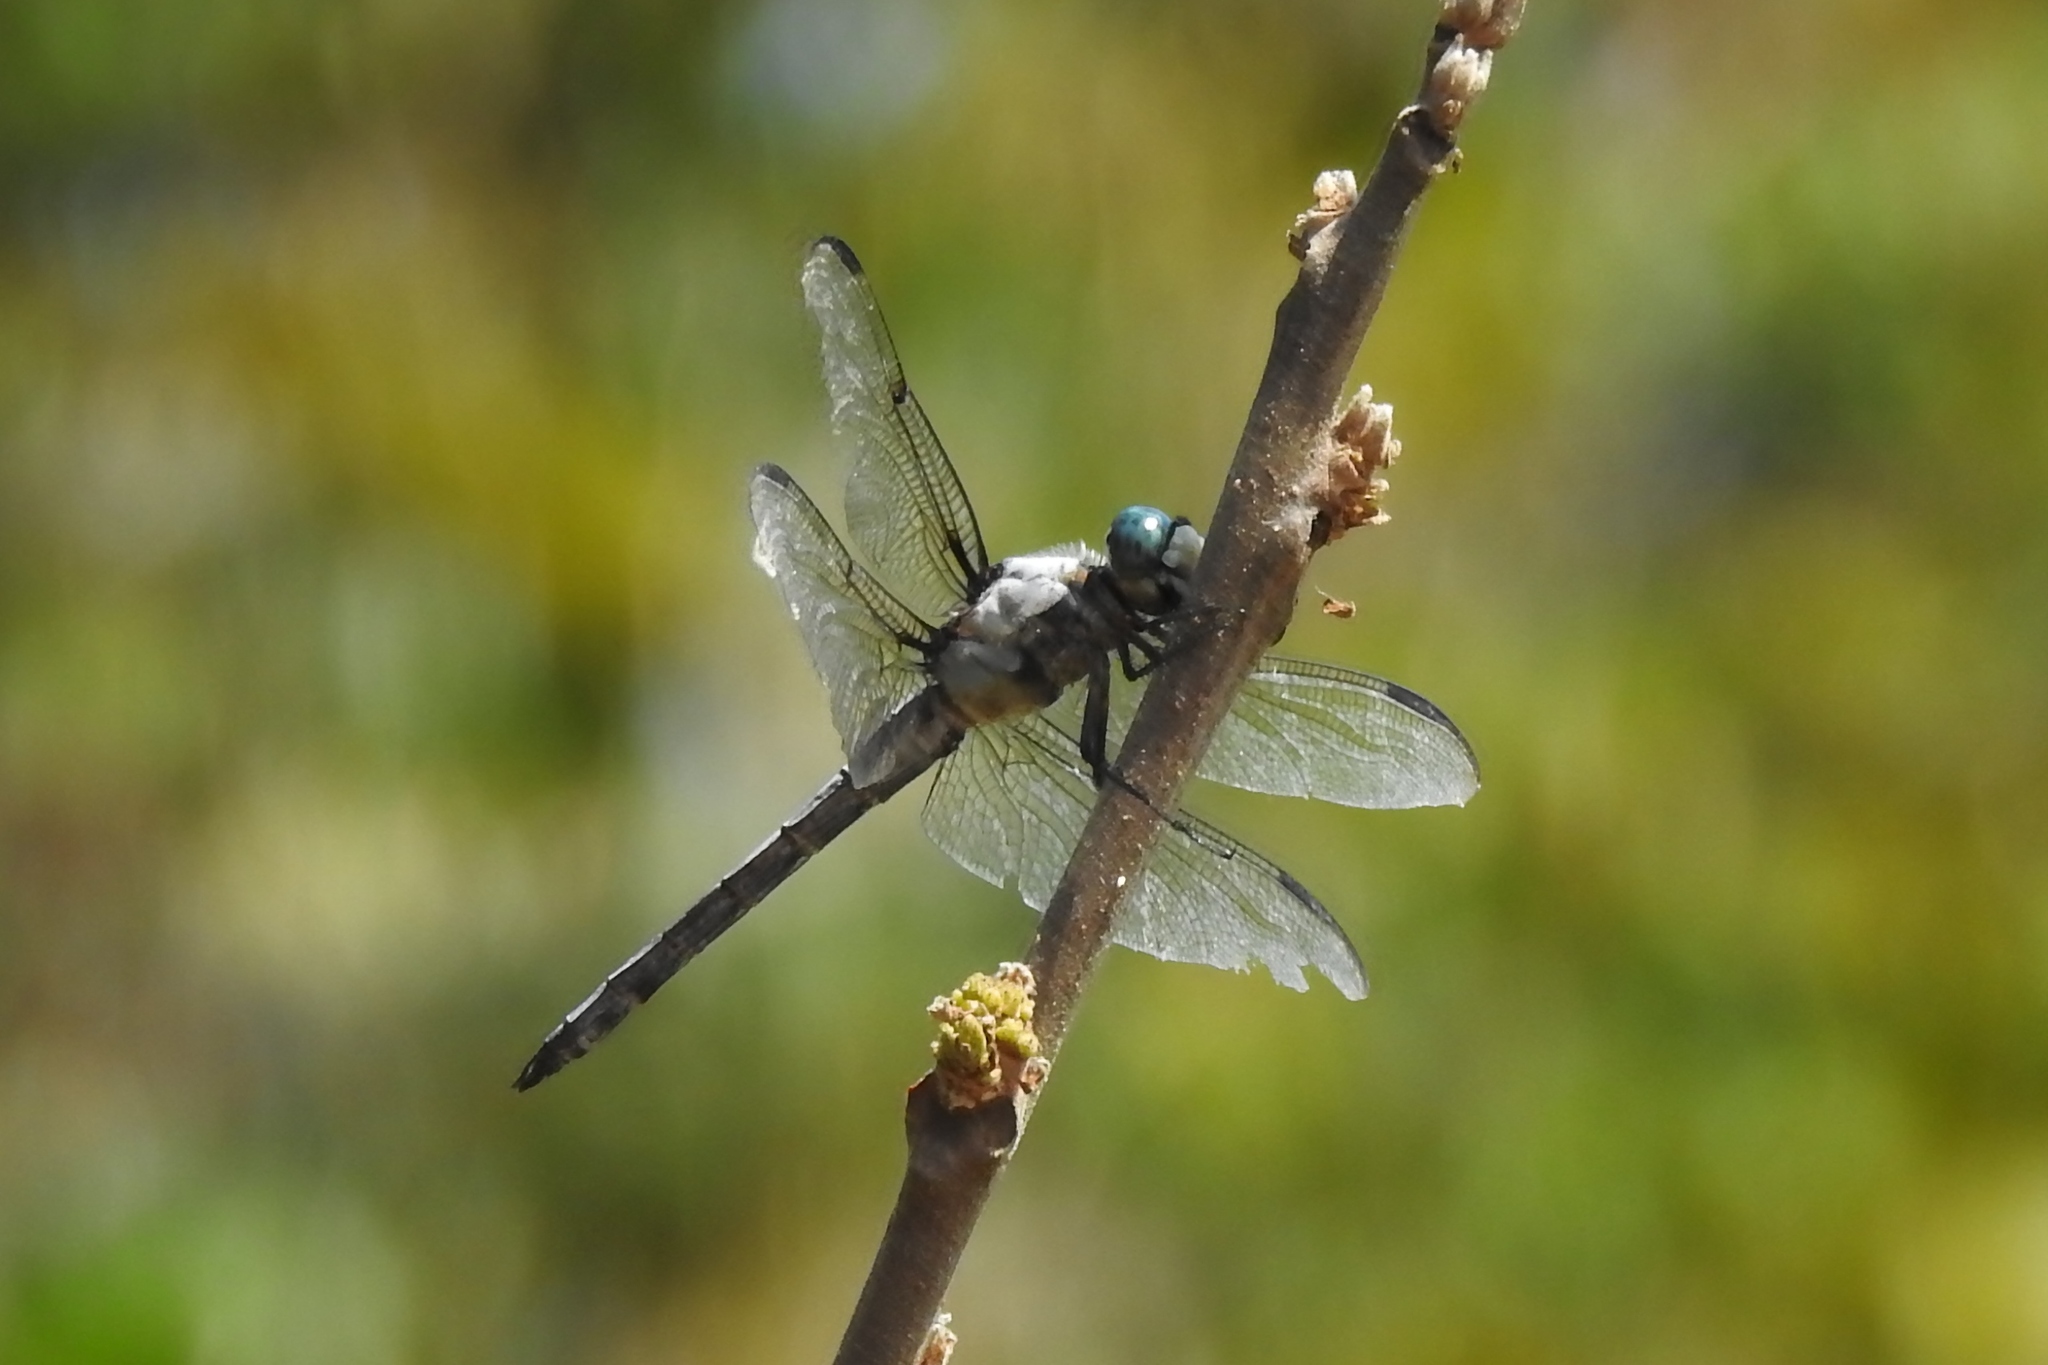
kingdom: Animalia
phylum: Arthropoda
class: Insecta
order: Odonata
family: Libellulidae
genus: Libellula
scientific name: Libellula vibrans
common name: Great blue skimmer
